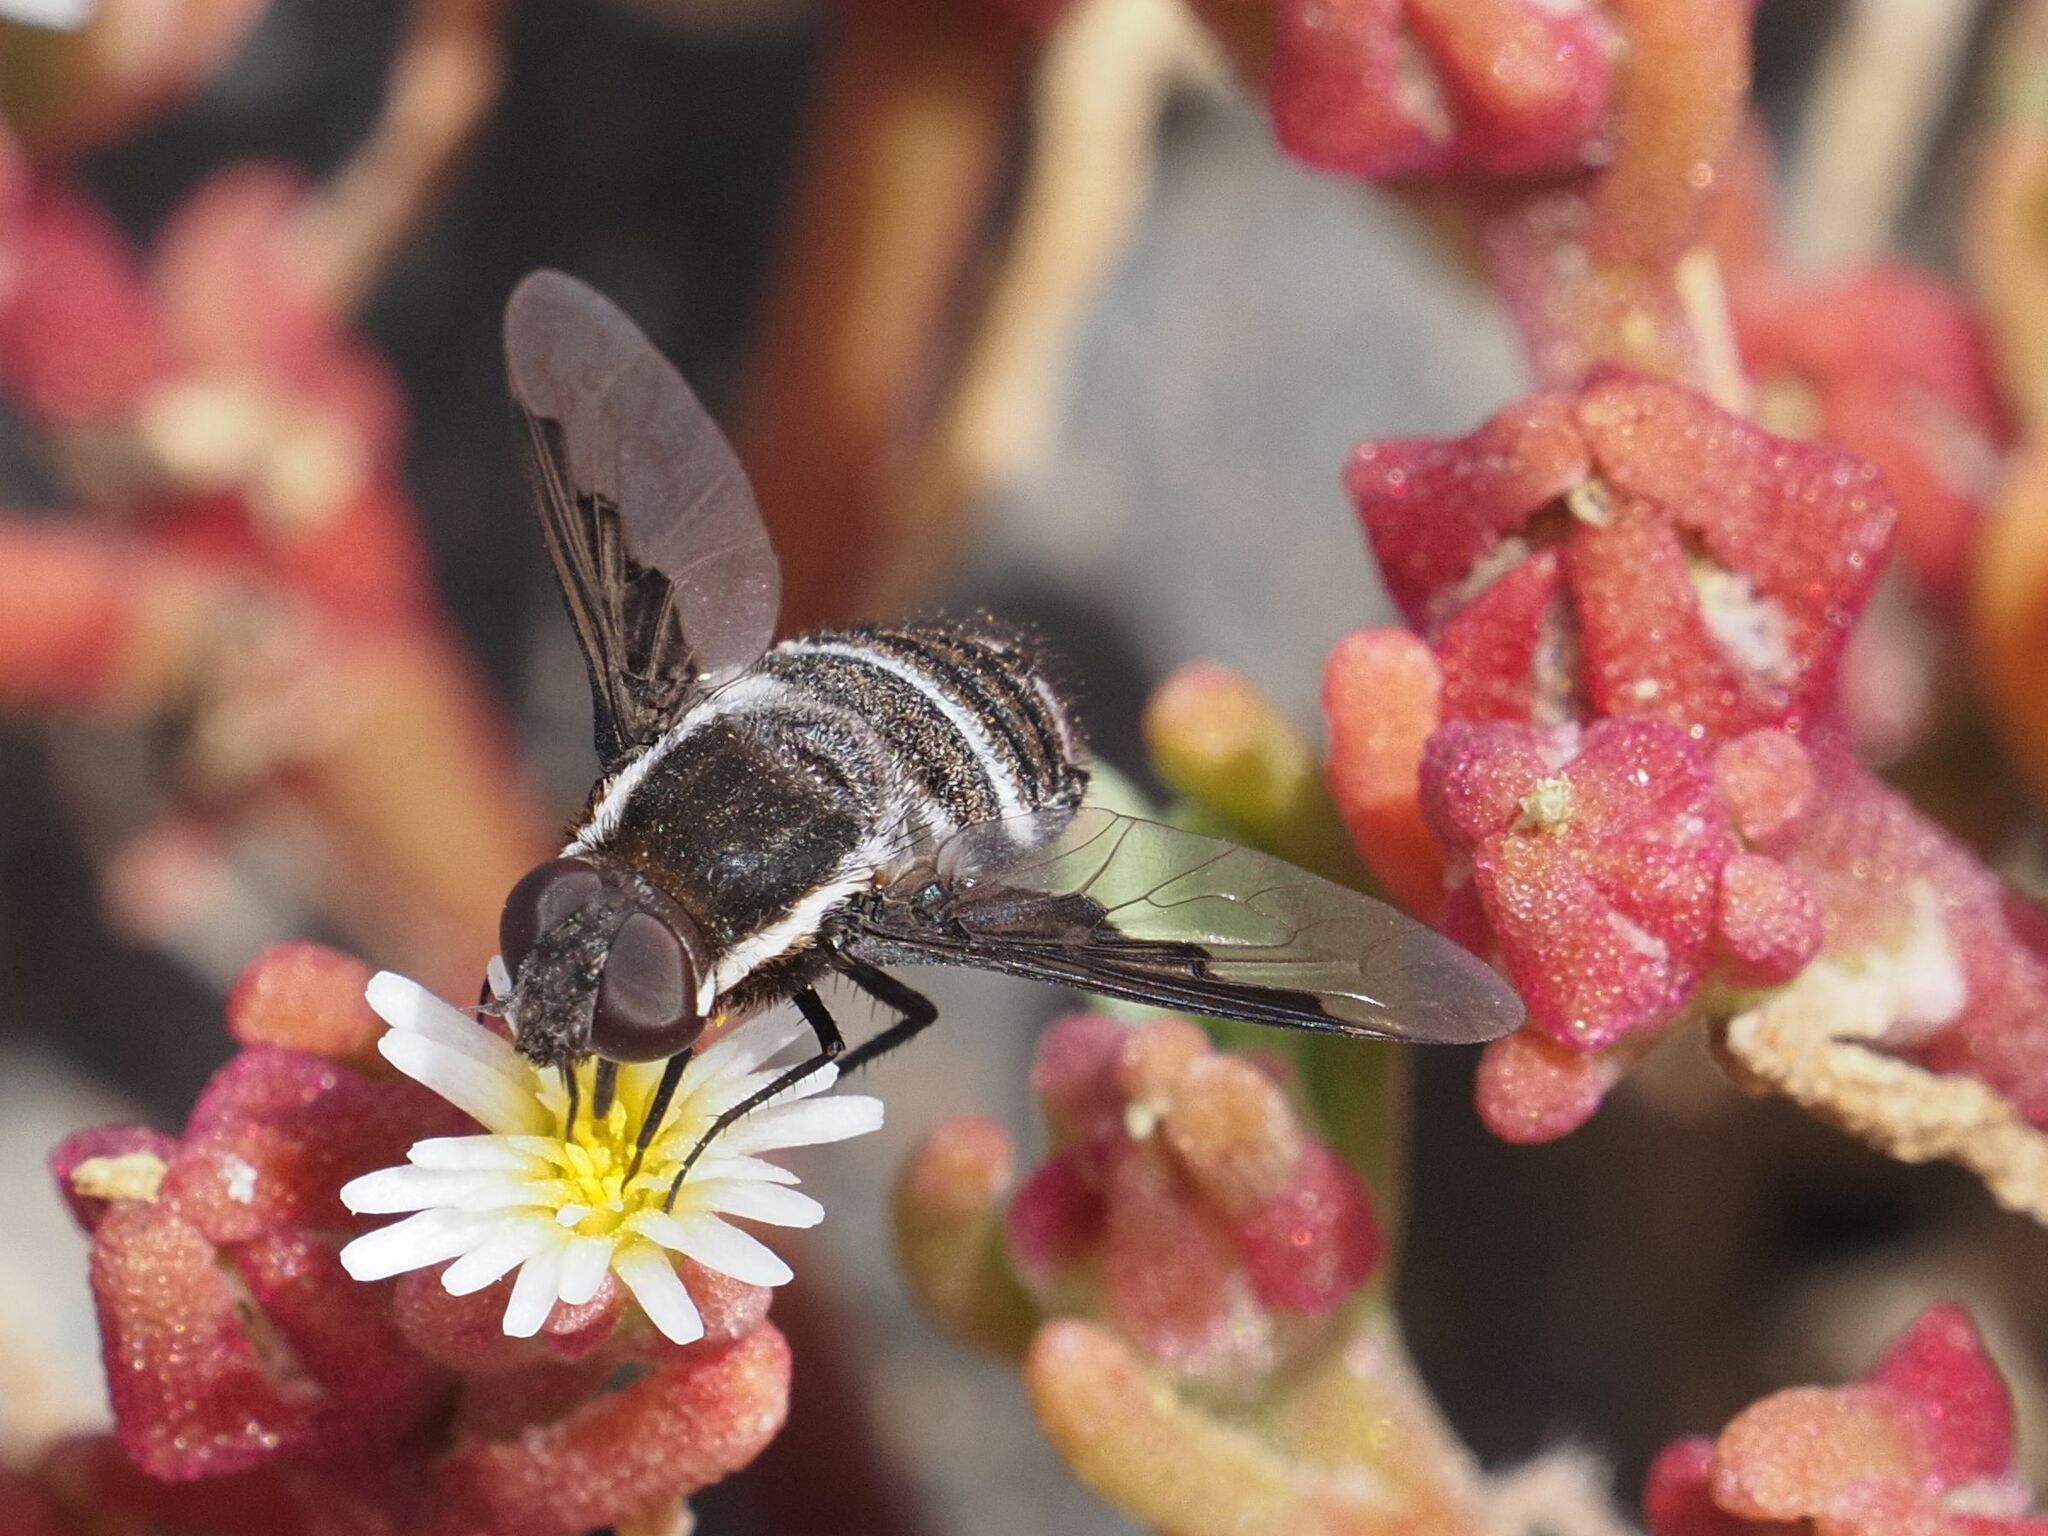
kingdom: Animalia
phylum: Arthropoda
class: Insecta
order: Diptera
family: Bombyliidae
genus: Exhyalanthrax
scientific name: Exhyalanthrax canarionae
